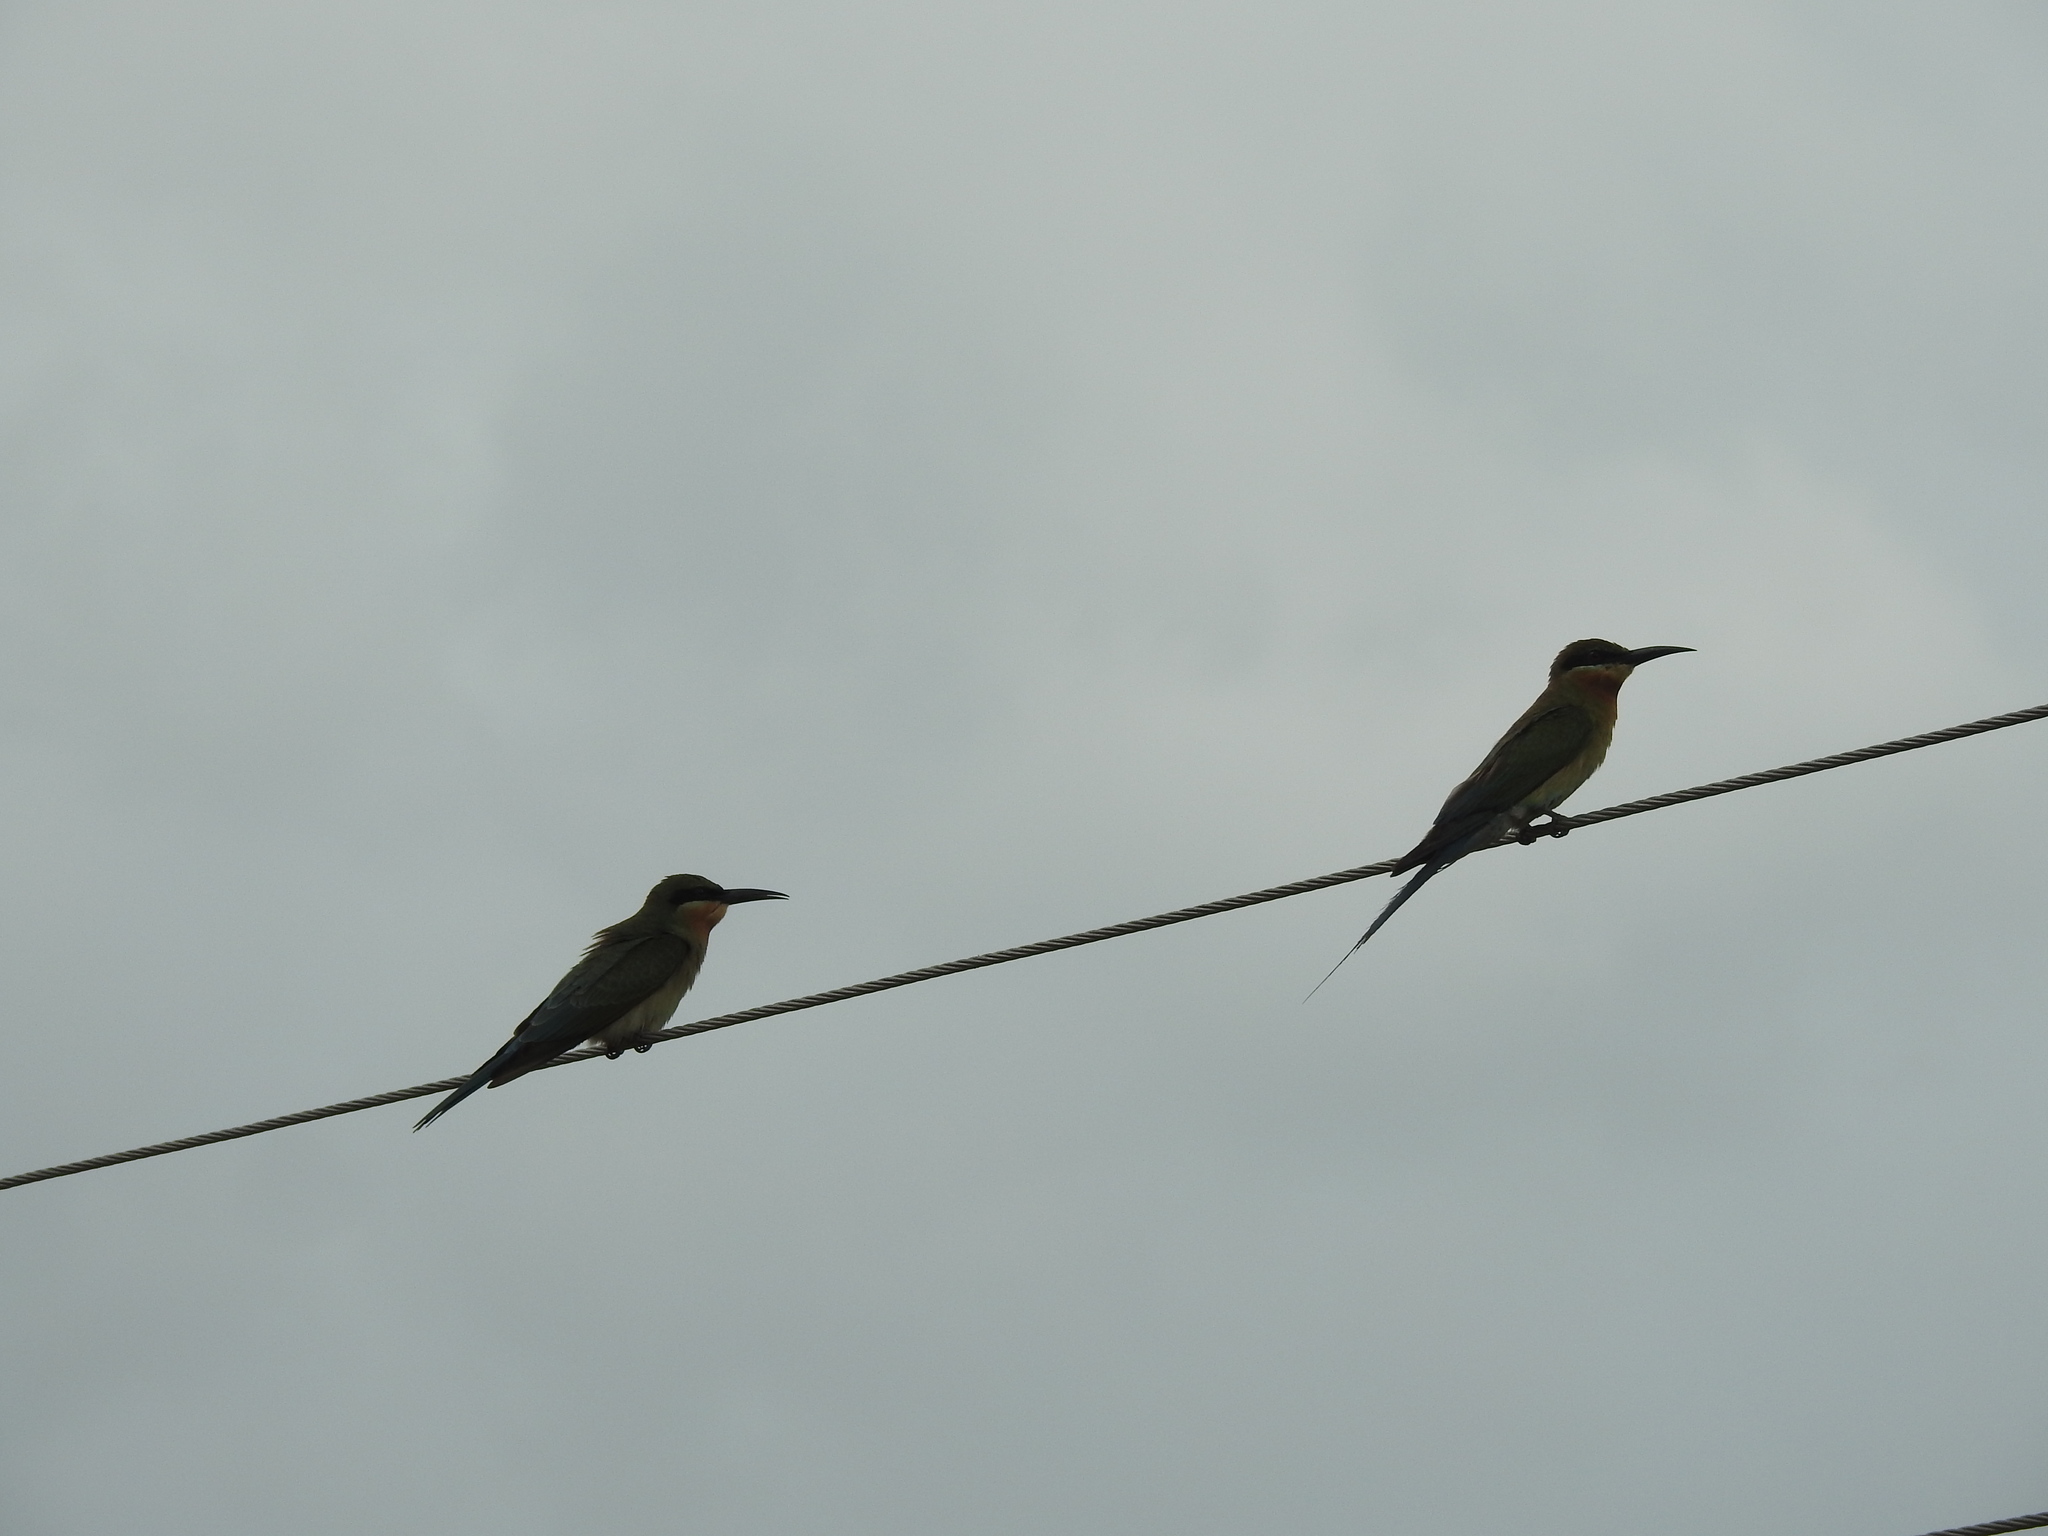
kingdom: Animalia
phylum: Chordata
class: Aves
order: Coraciiformes
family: Meropidae
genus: Merops
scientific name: Merops philippinus
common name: Blue-tailed bee-eater
